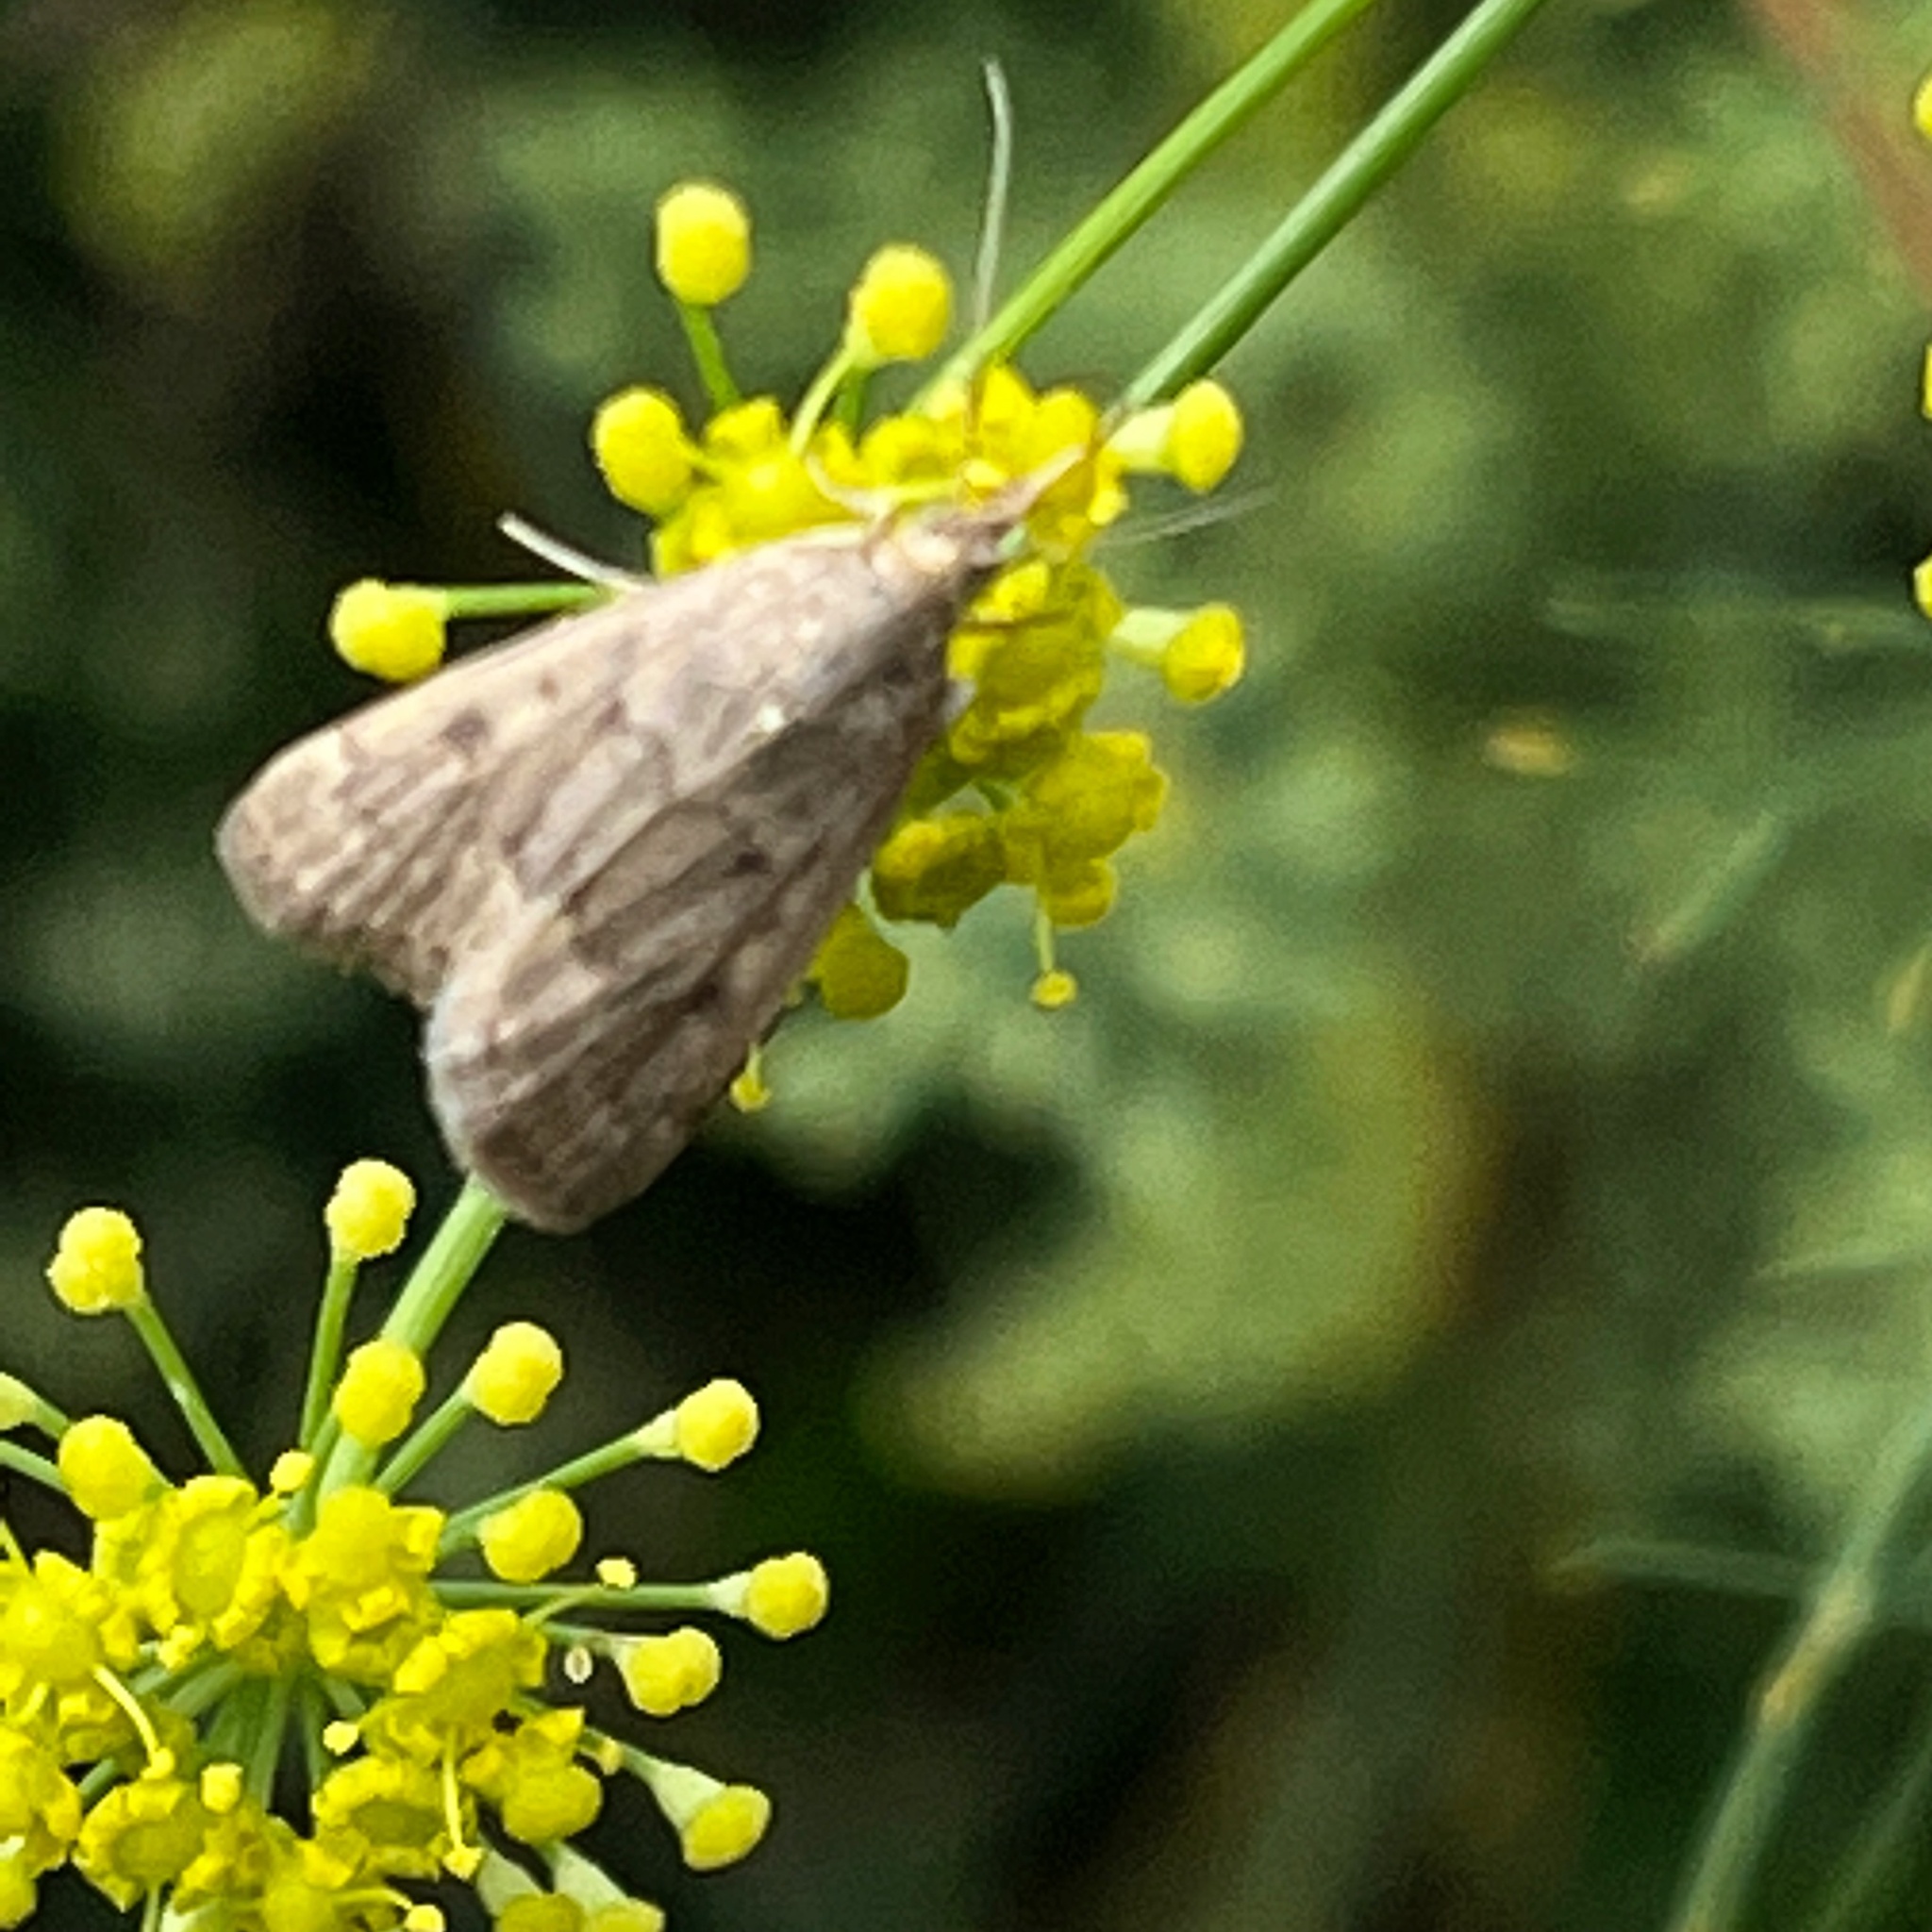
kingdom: Animalia
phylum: Arthropoda
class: Insecta
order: Lepidoptera
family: Crambidae
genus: Achyra
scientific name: Achyra rantalis
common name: Garden webworm
